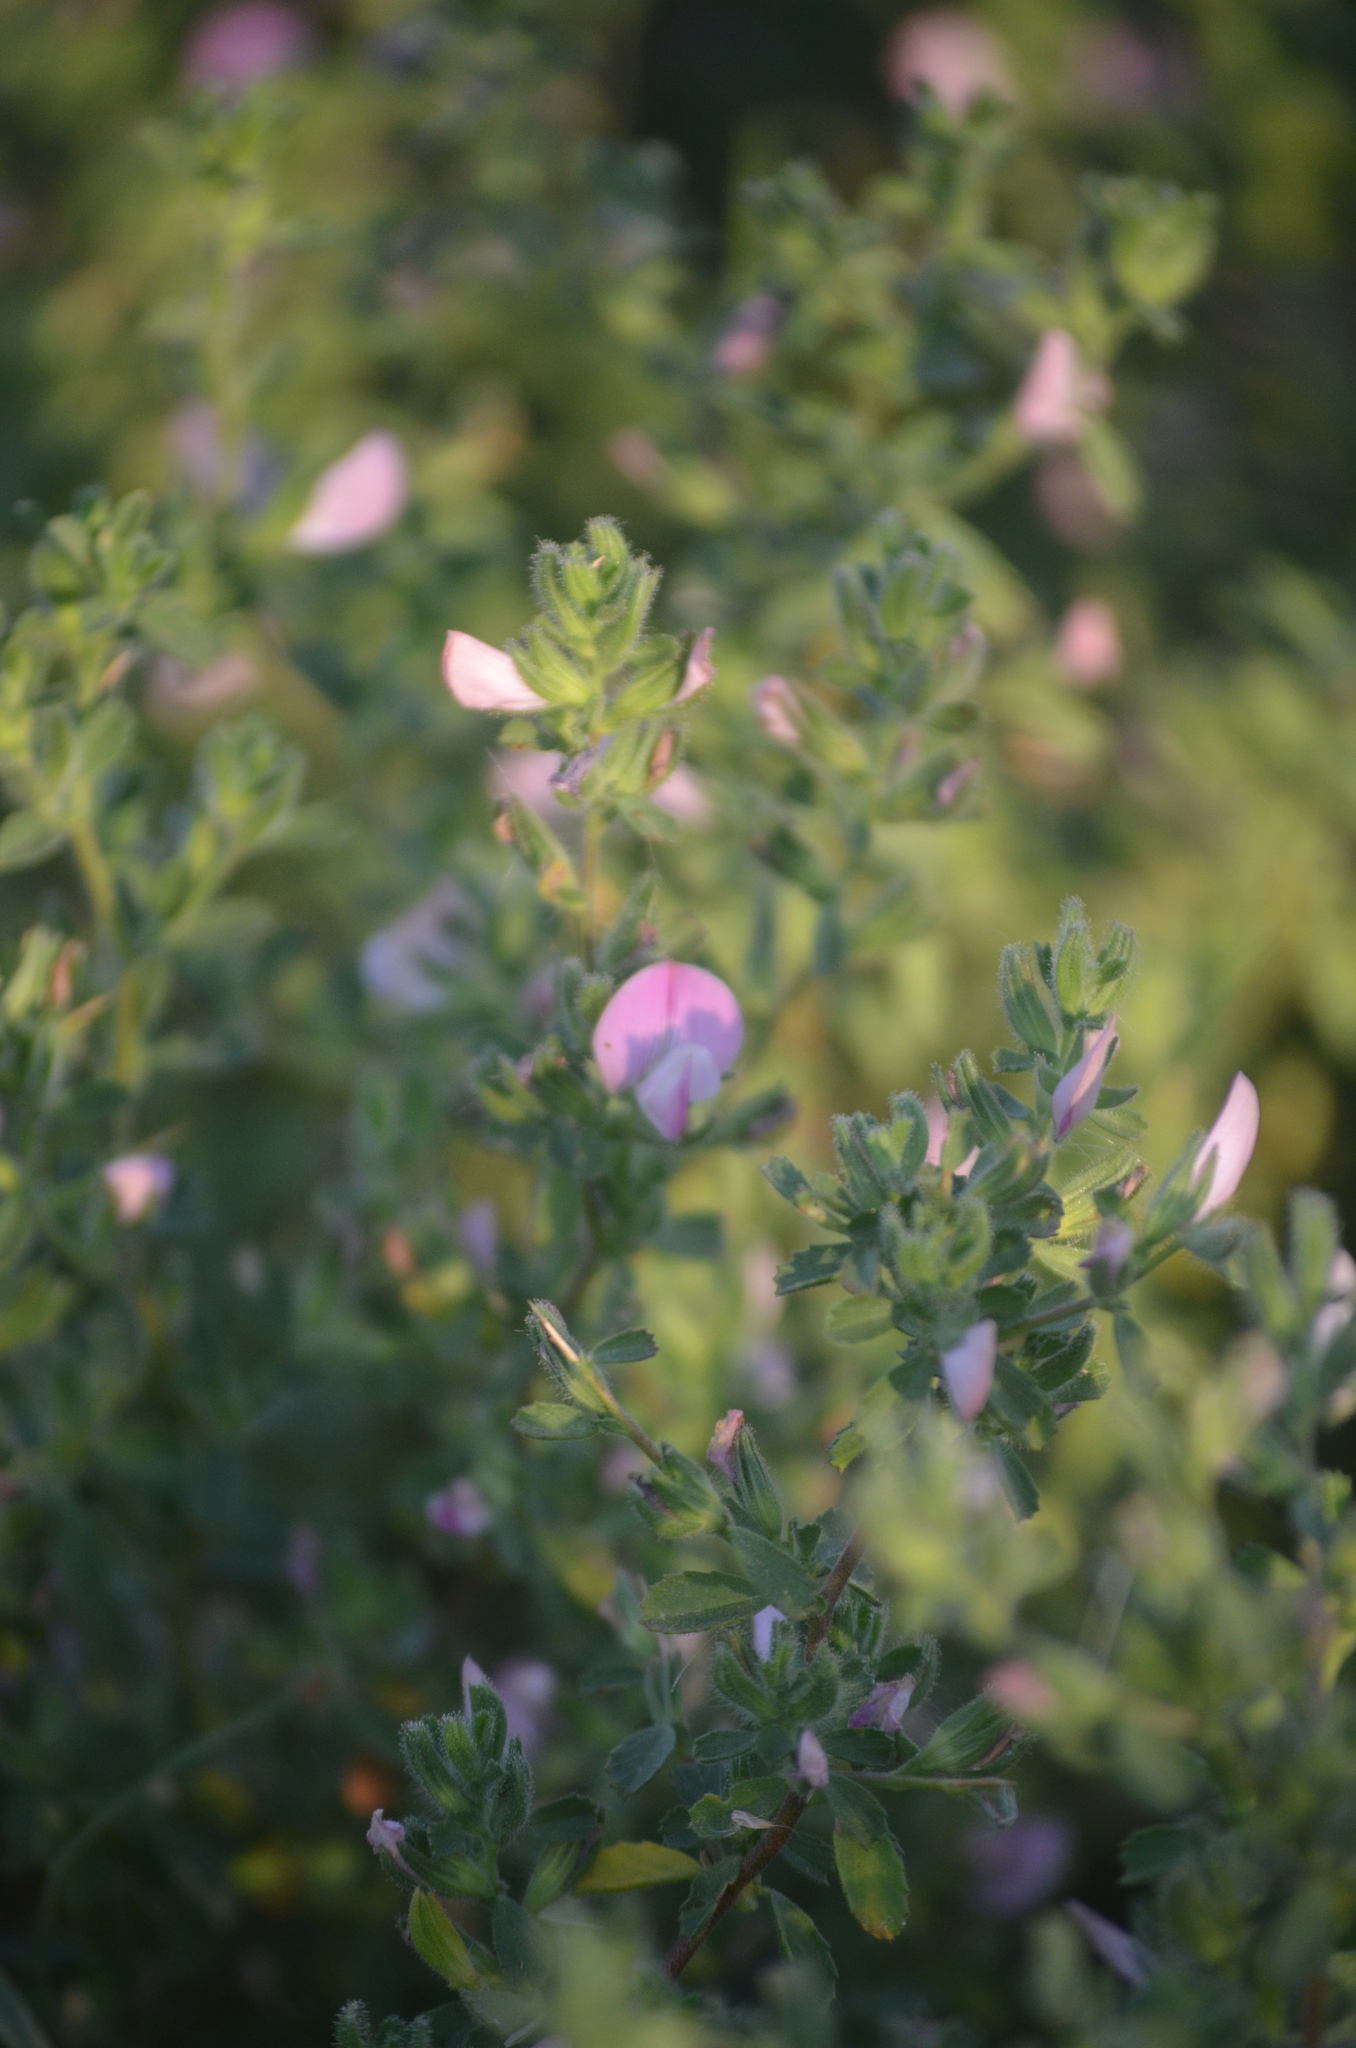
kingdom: Plantae
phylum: Tracheophyta
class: Magnoliopsida
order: Fabales
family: Fabaceae
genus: Ononis
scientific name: Ononis spinosa
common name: Spiny restharrow
